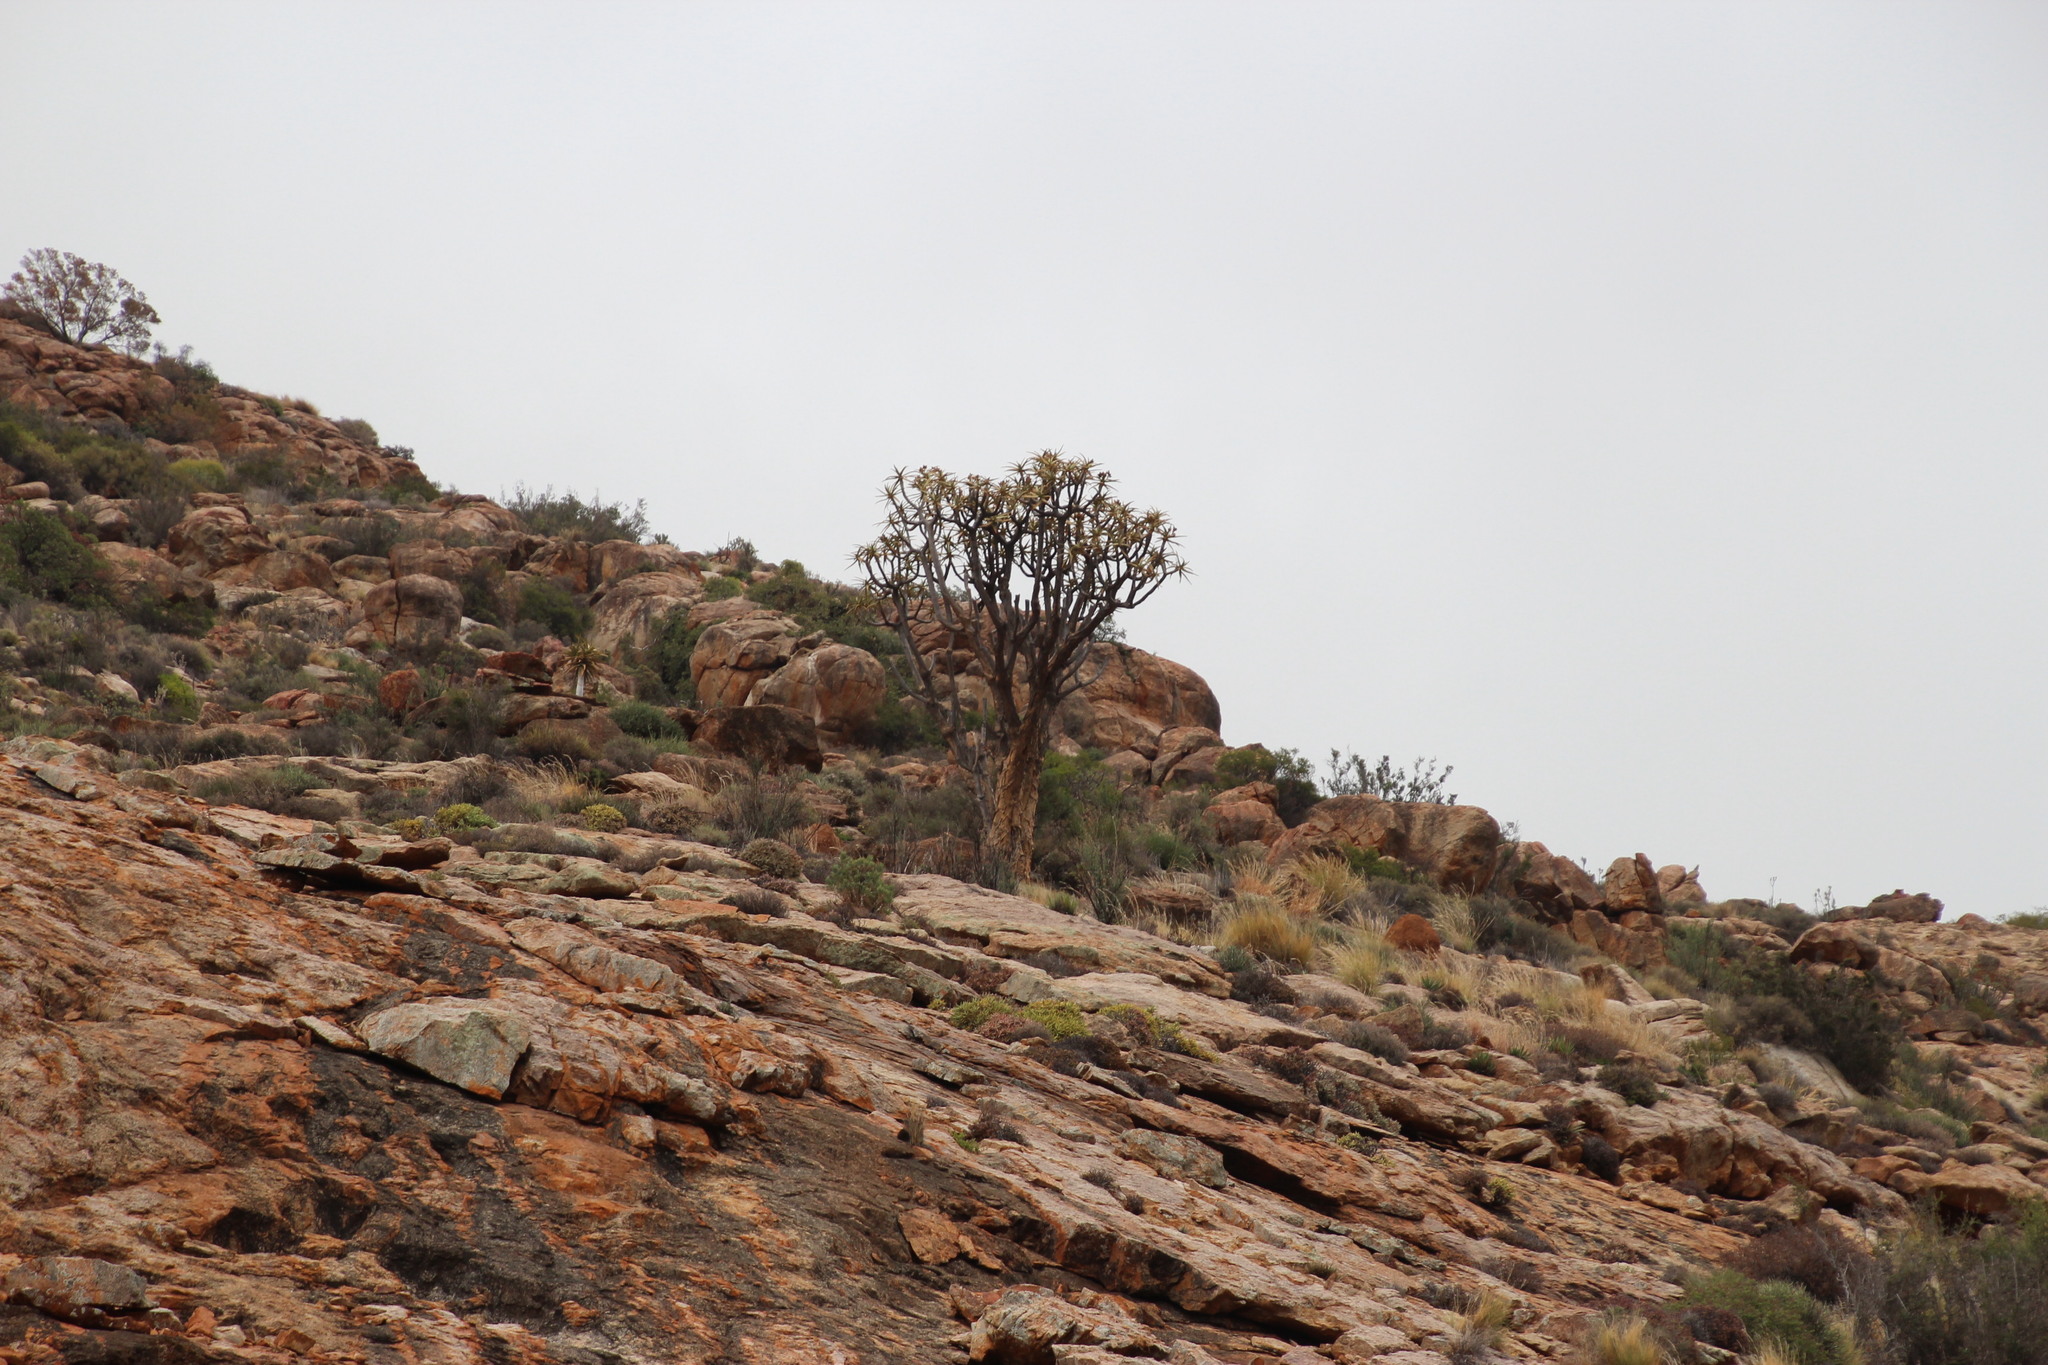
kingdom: Plantae
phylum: Tracheophyta
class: Liliopsida
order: Asparagales
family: Asphodelaceae
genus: Aloidendron
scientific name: Aloidendron dichotomum
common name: Quiver tree
